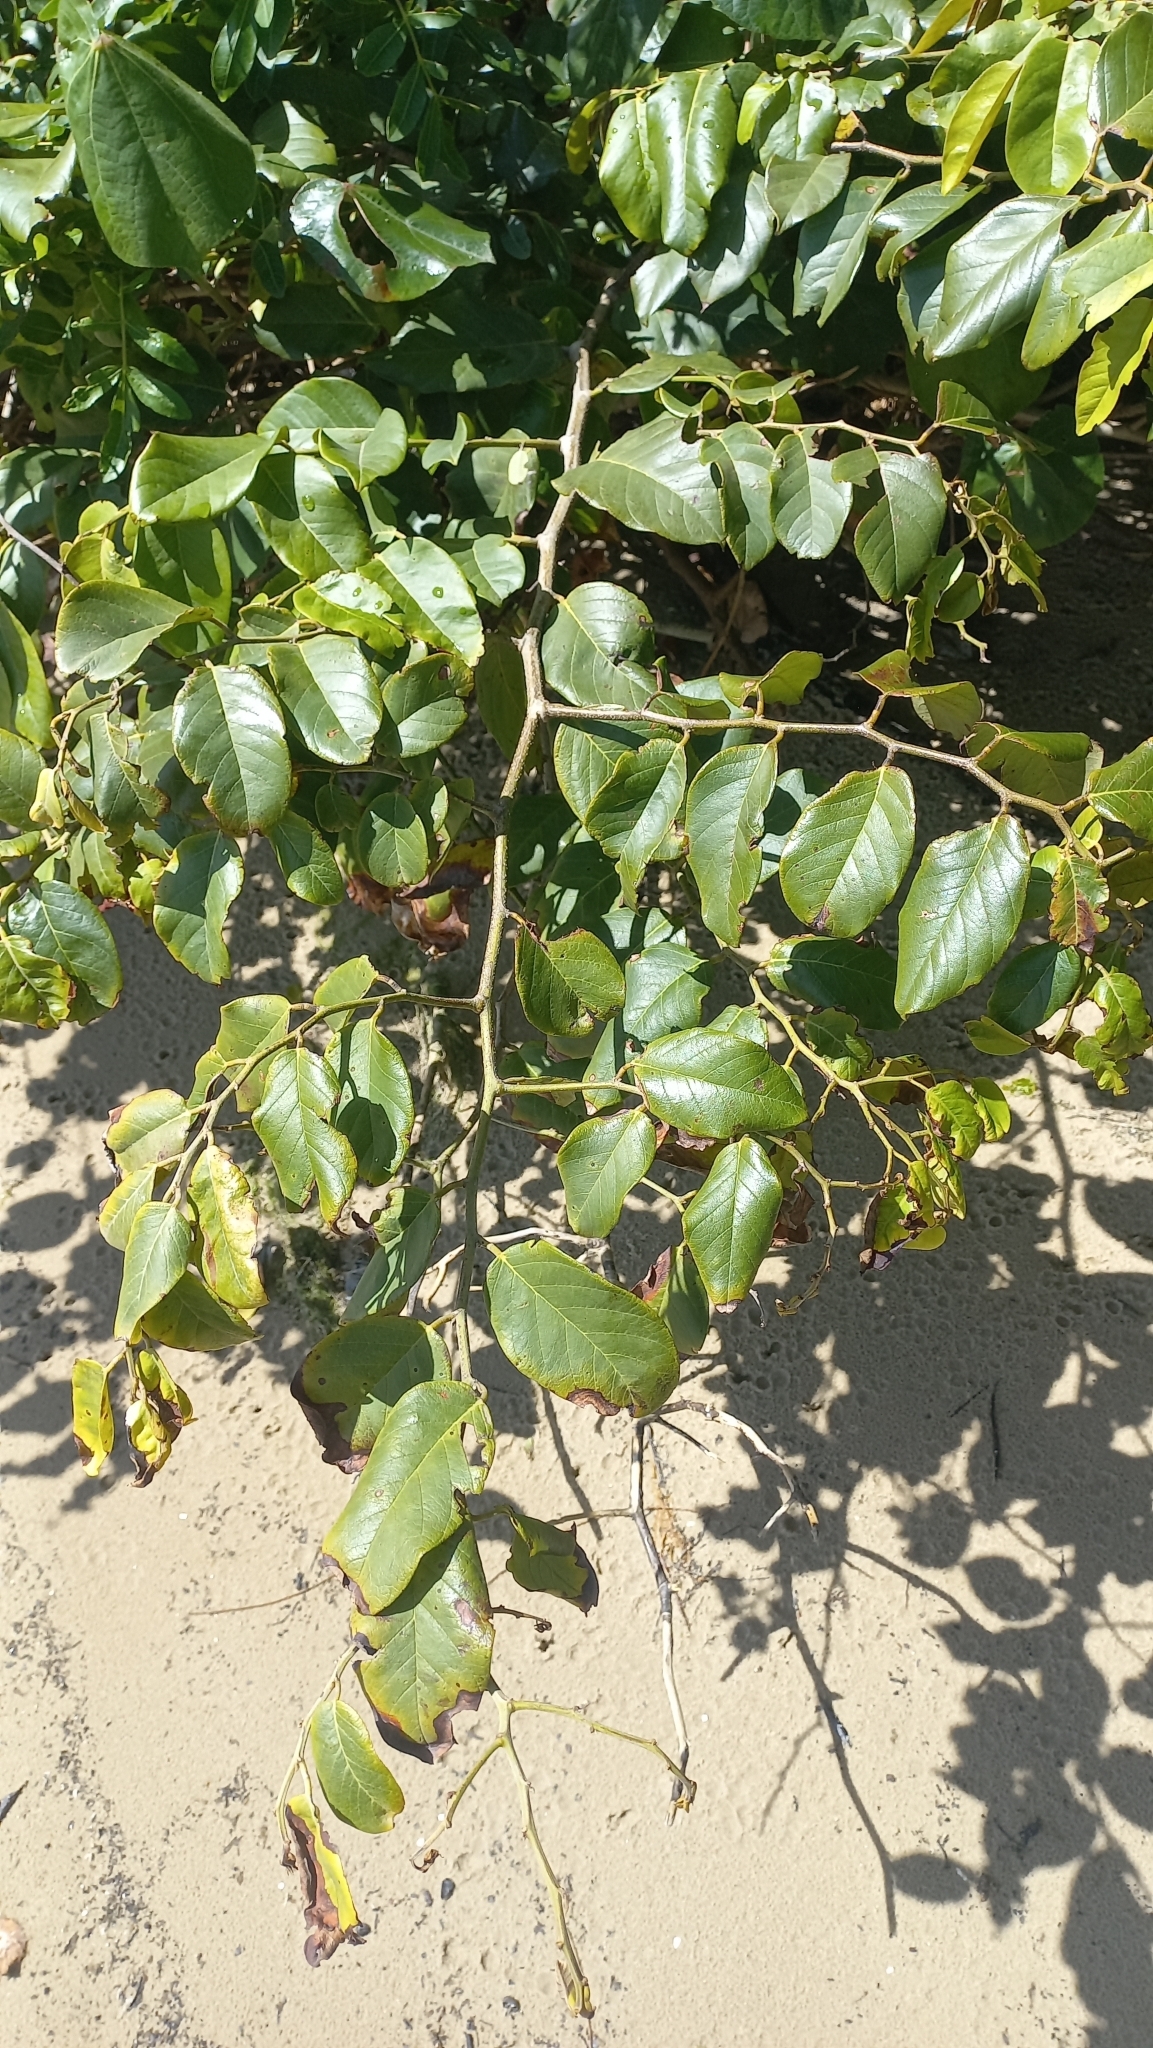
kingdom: Plantae
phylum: Tracheophyta
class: Magnoliopsida
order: Fabales
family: Fabaceae
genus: Dalbergia
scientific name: Dalbergia ecastaphyllum
